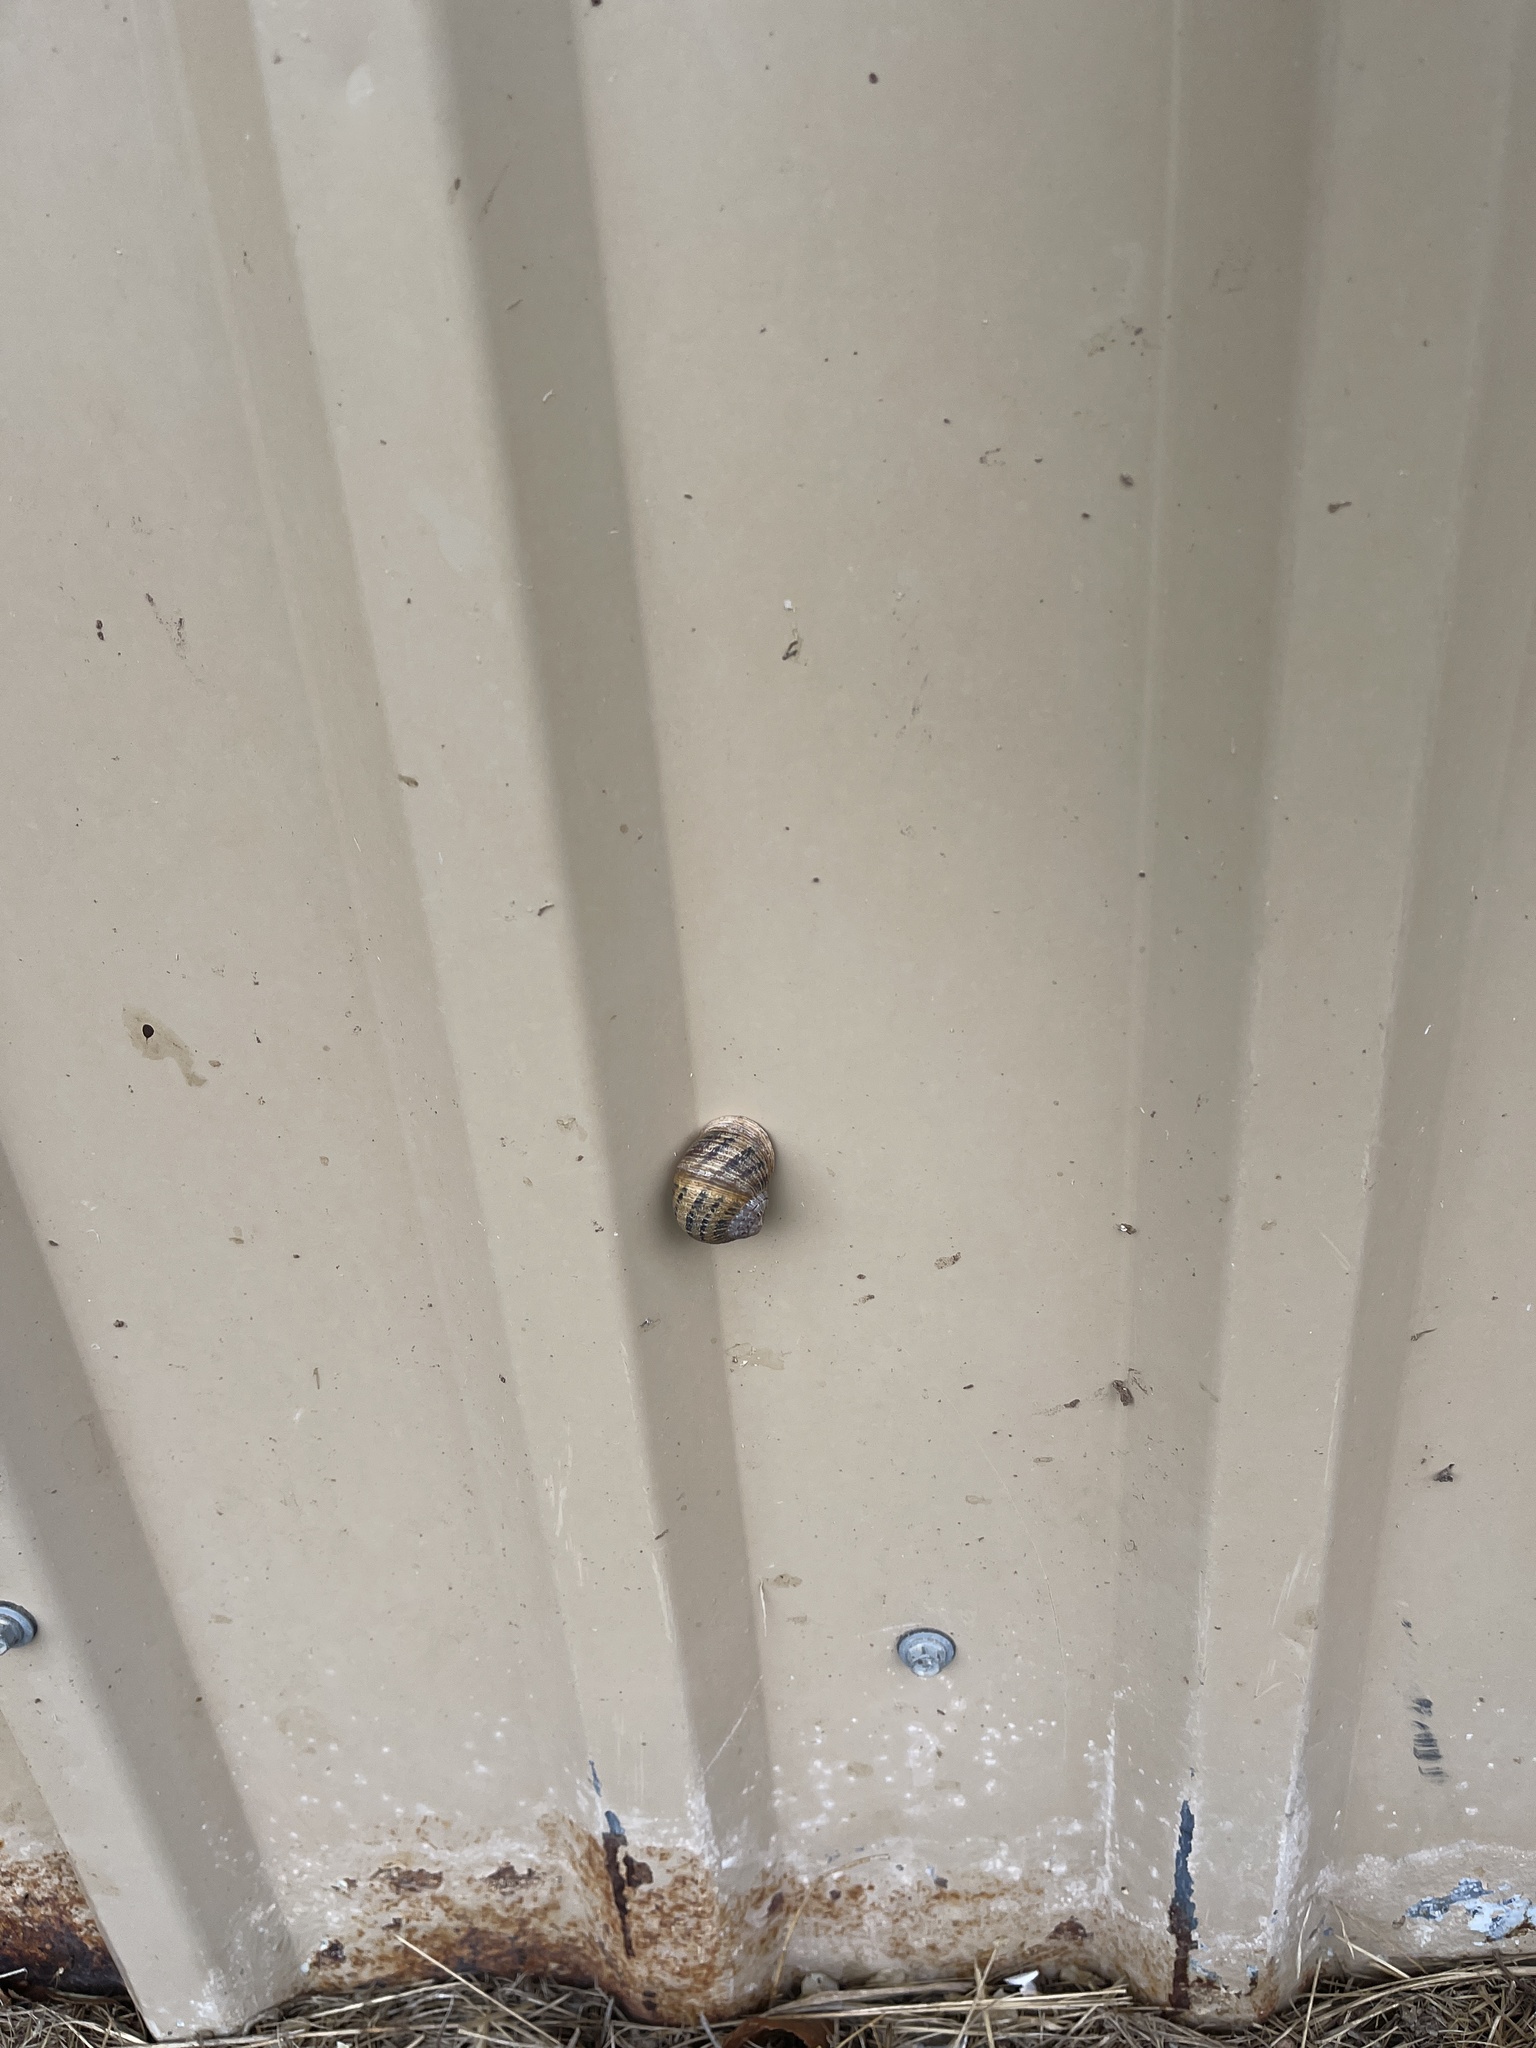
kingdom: Animalia
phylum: Mollusca
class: Gastropoda
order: Stylommatophora
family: Helicidae
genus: Cornu
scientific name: Cornu aspersum
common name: Brown garden snail
